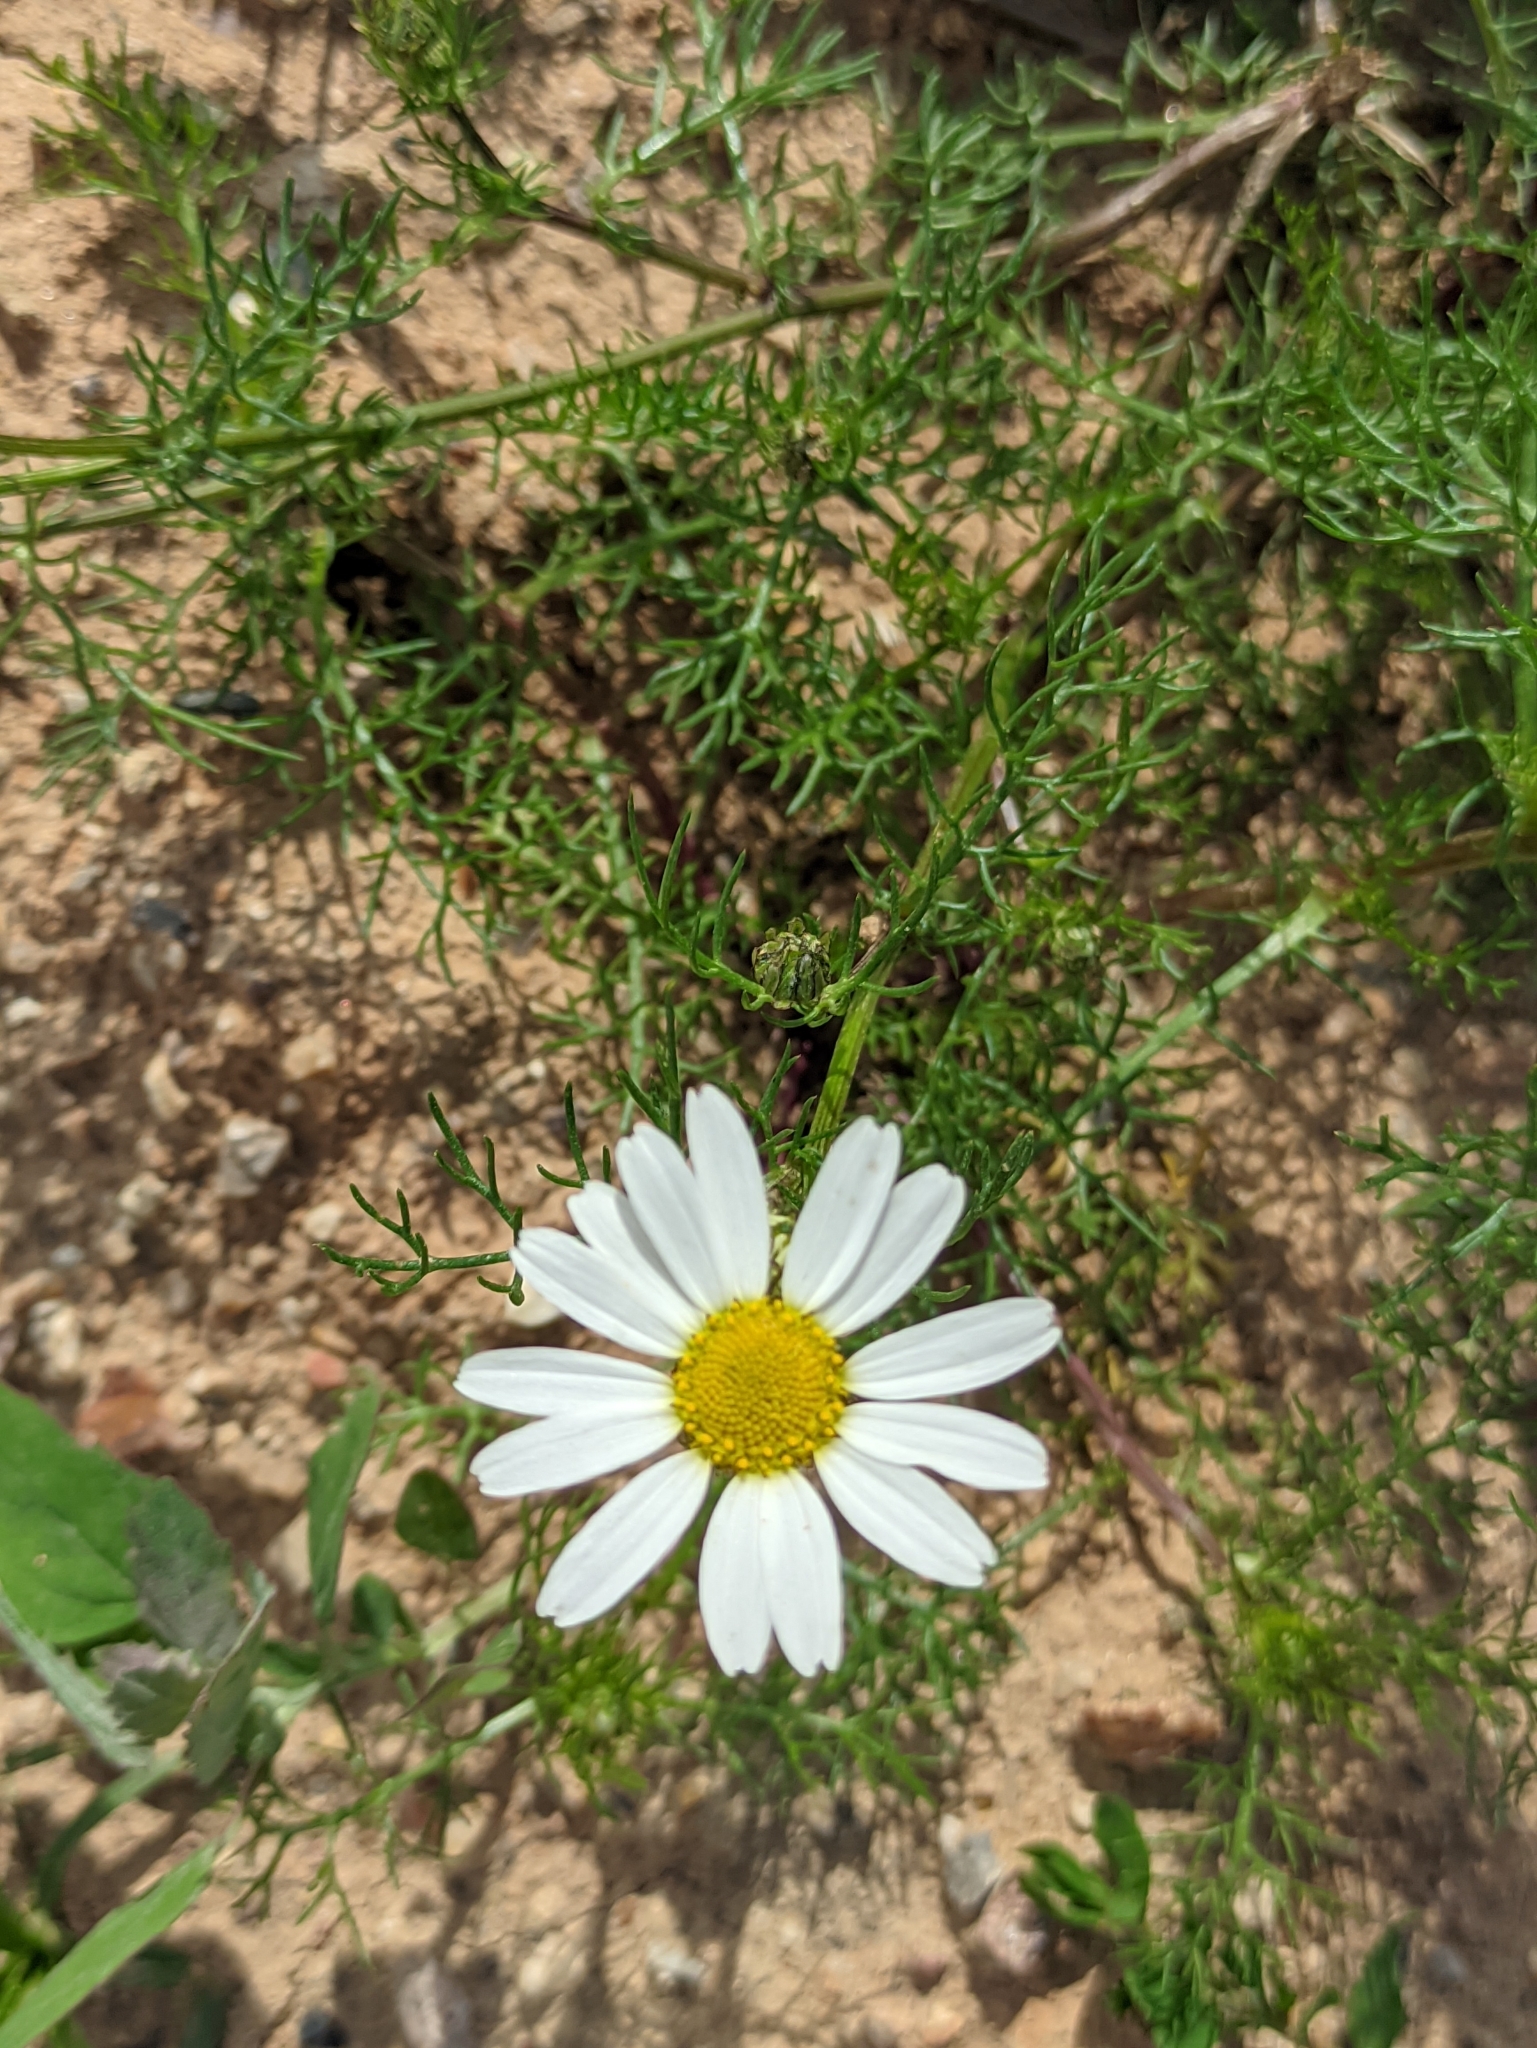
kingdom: Plantae
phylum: Tracheophyta
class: Magnoliopsida
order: Asterales
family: Asteraceae
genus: Tripleurospermum
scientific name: Tripleurospermum inodorum
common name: Scentless mayweed
